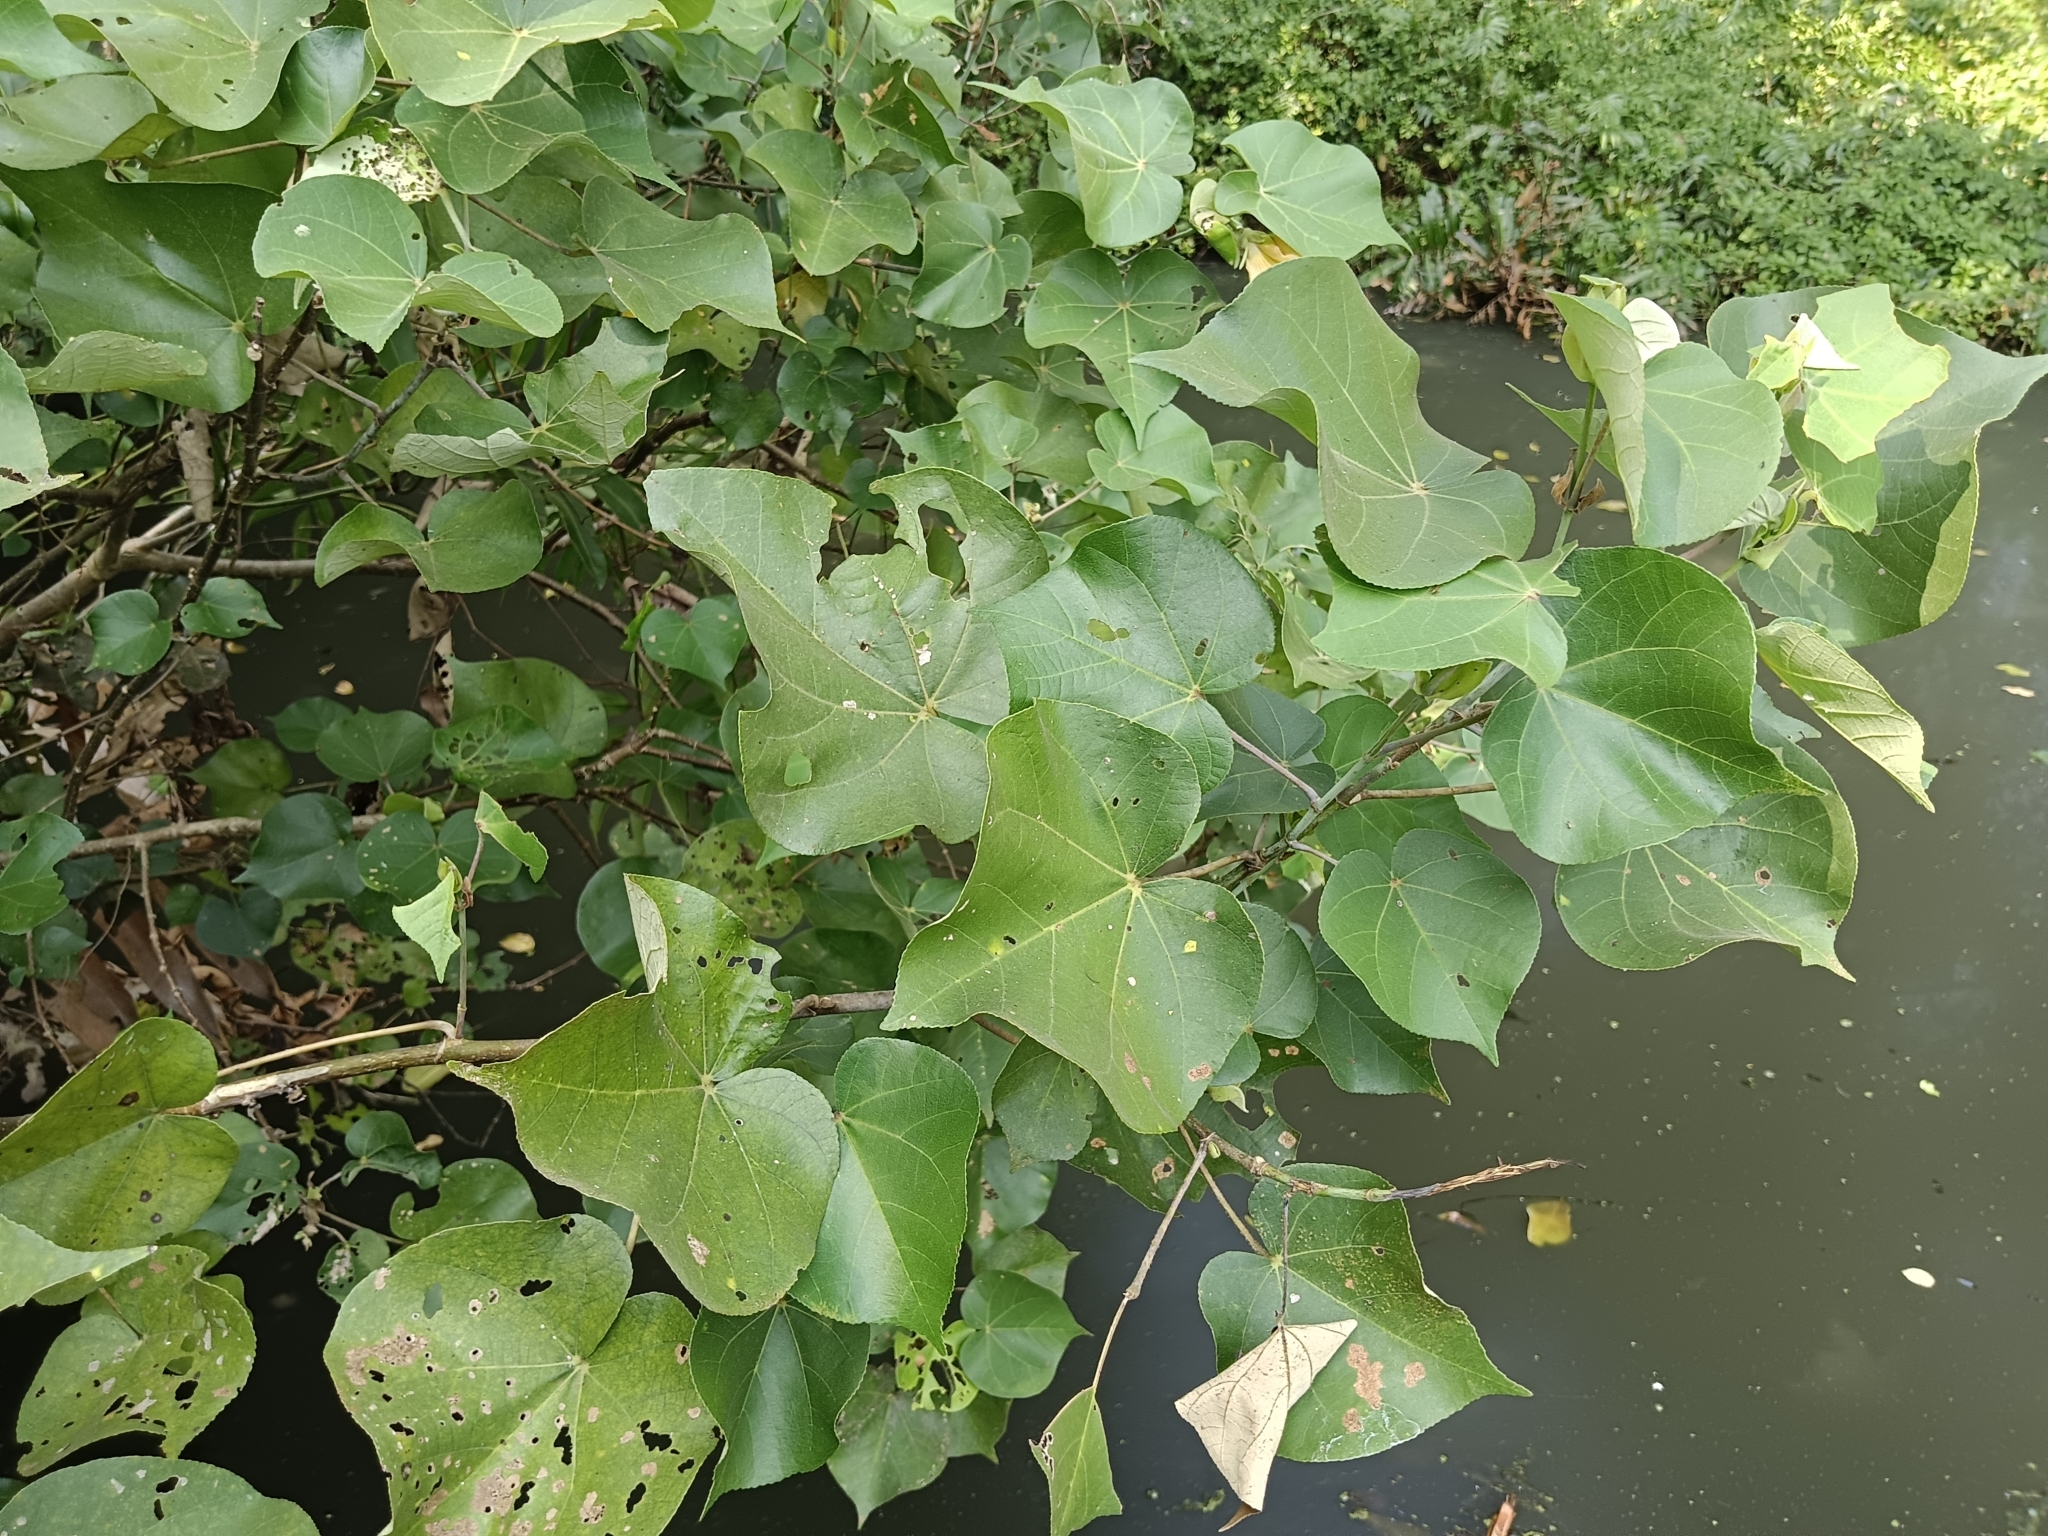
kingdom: Plantae
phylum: Tracheophyta
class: Magnoliopsida
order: Malvales
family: Malvaceae
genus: Thespesia
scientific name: Thespesia populnea
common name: Seaside mahoe
